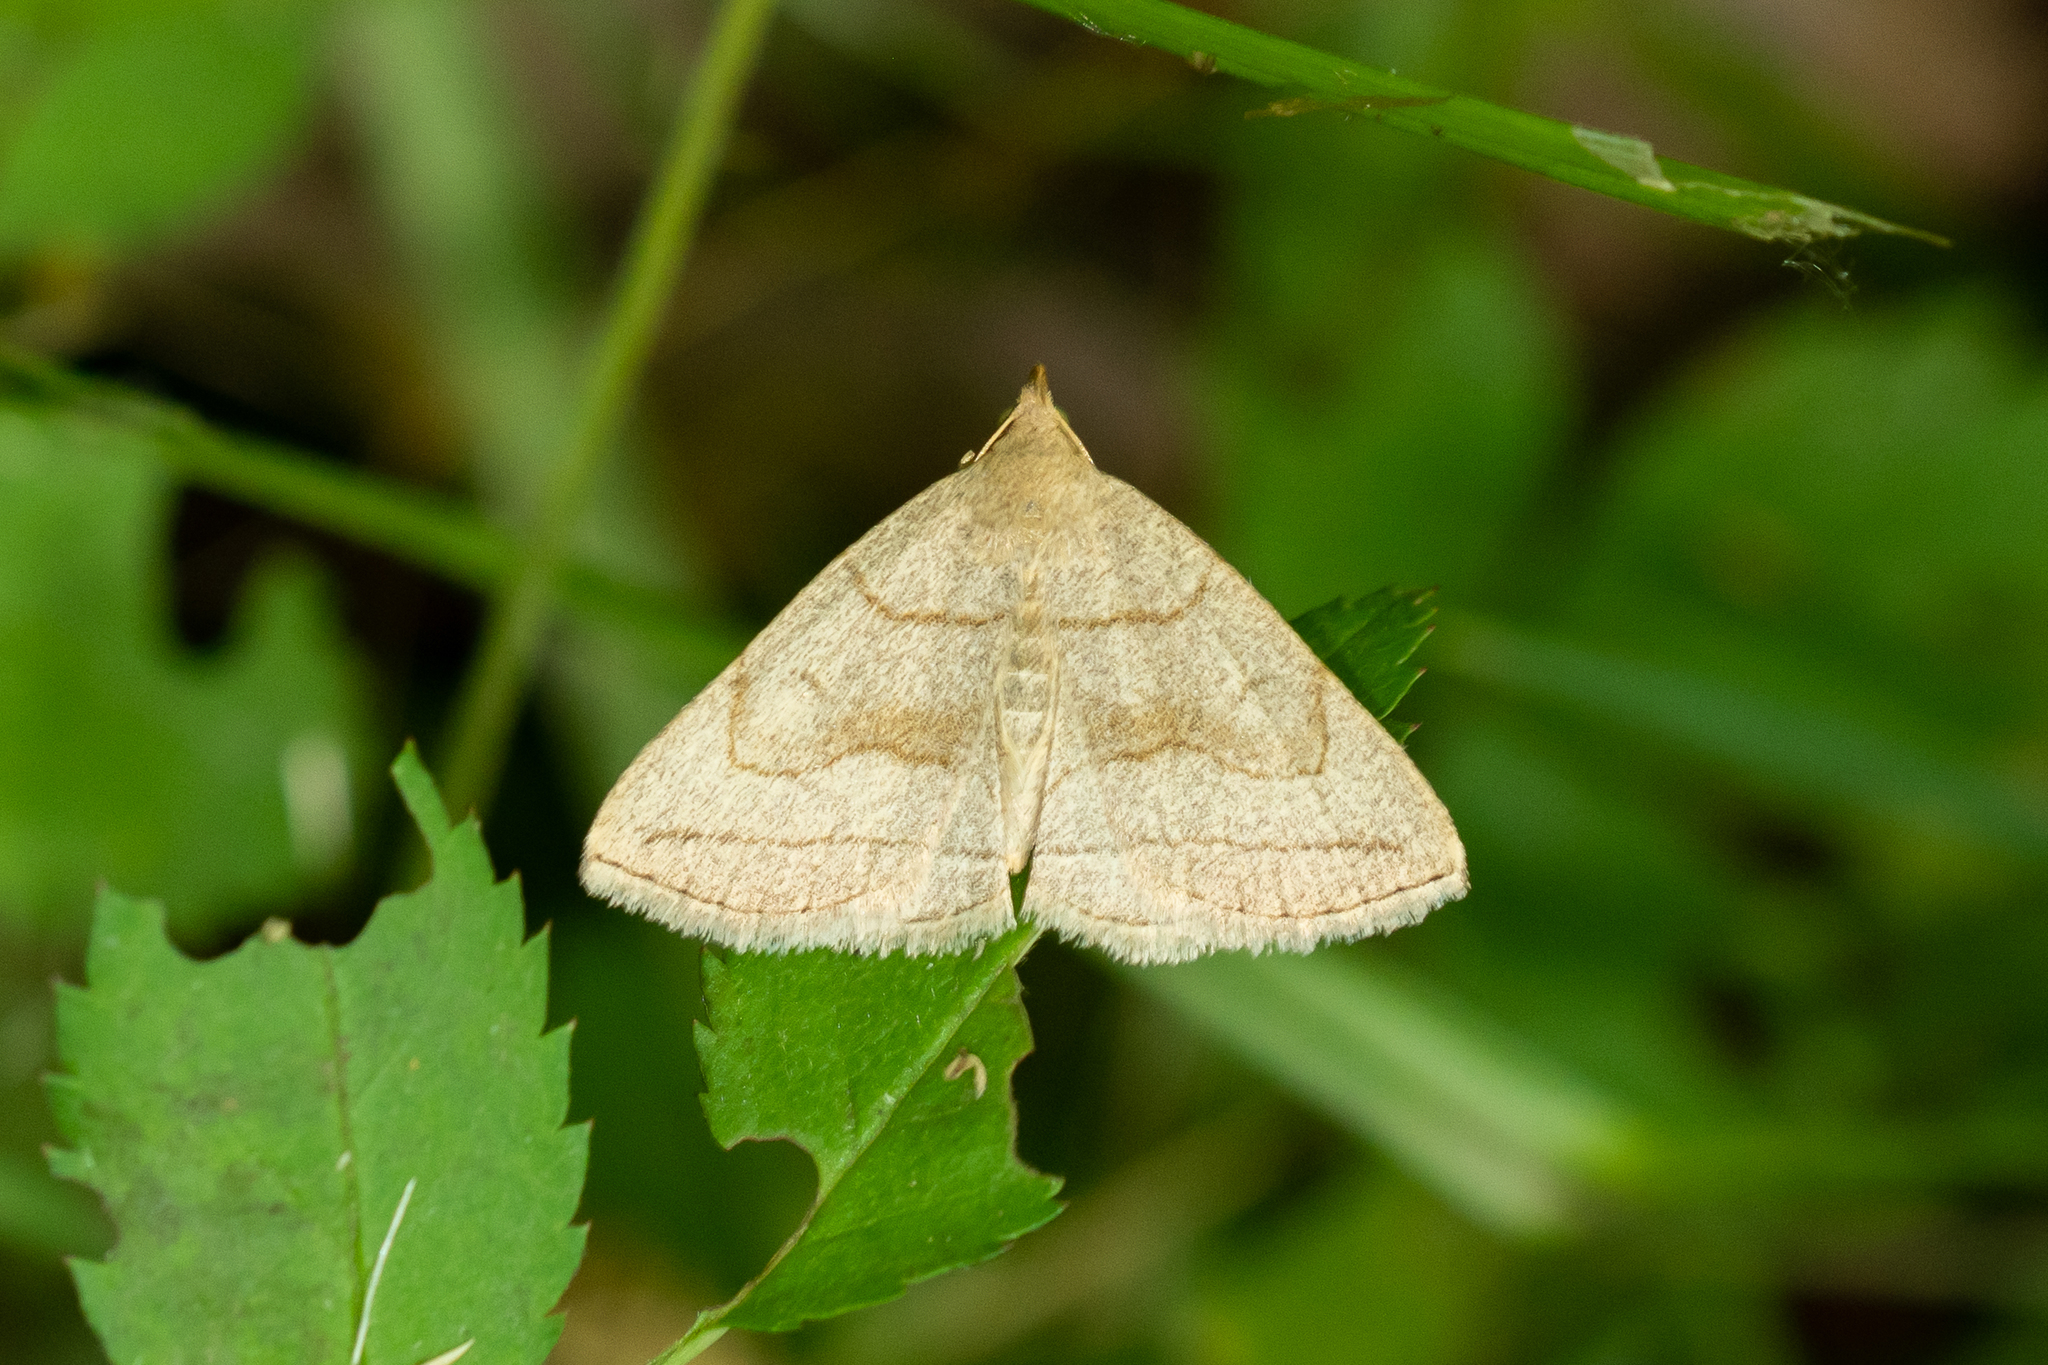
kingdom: Animalia
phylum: Arthropoda
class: Insecta
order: Lepidoptera
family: Erebidae
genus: Zanclognatha
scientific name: Zanclognatha pedipilalis
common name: Grayish fan-foot
